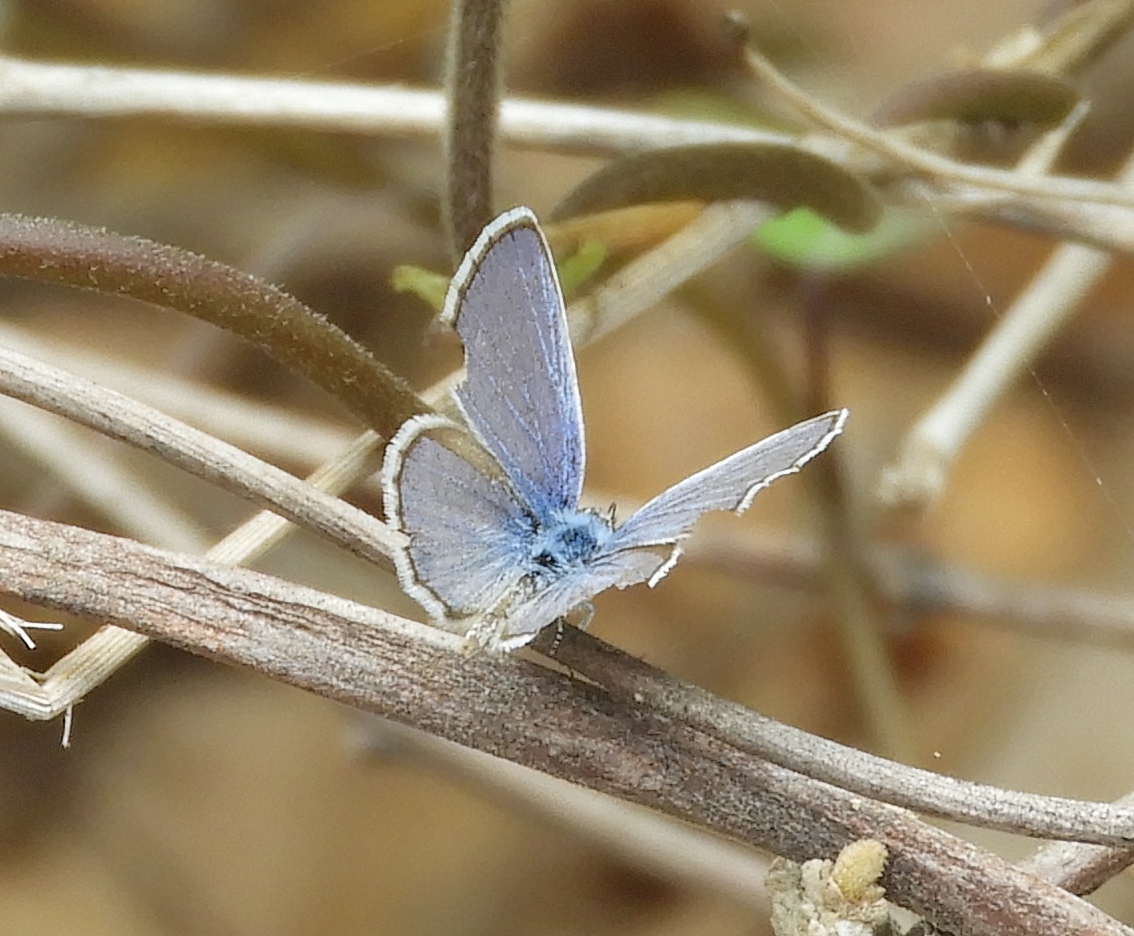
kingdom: Animalia
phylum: Arthropoda
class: Insecta
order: Lepidoptera
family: Lycaenidae
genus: Echinargus
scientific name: Echinargus isola
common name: Reakirt's blue
